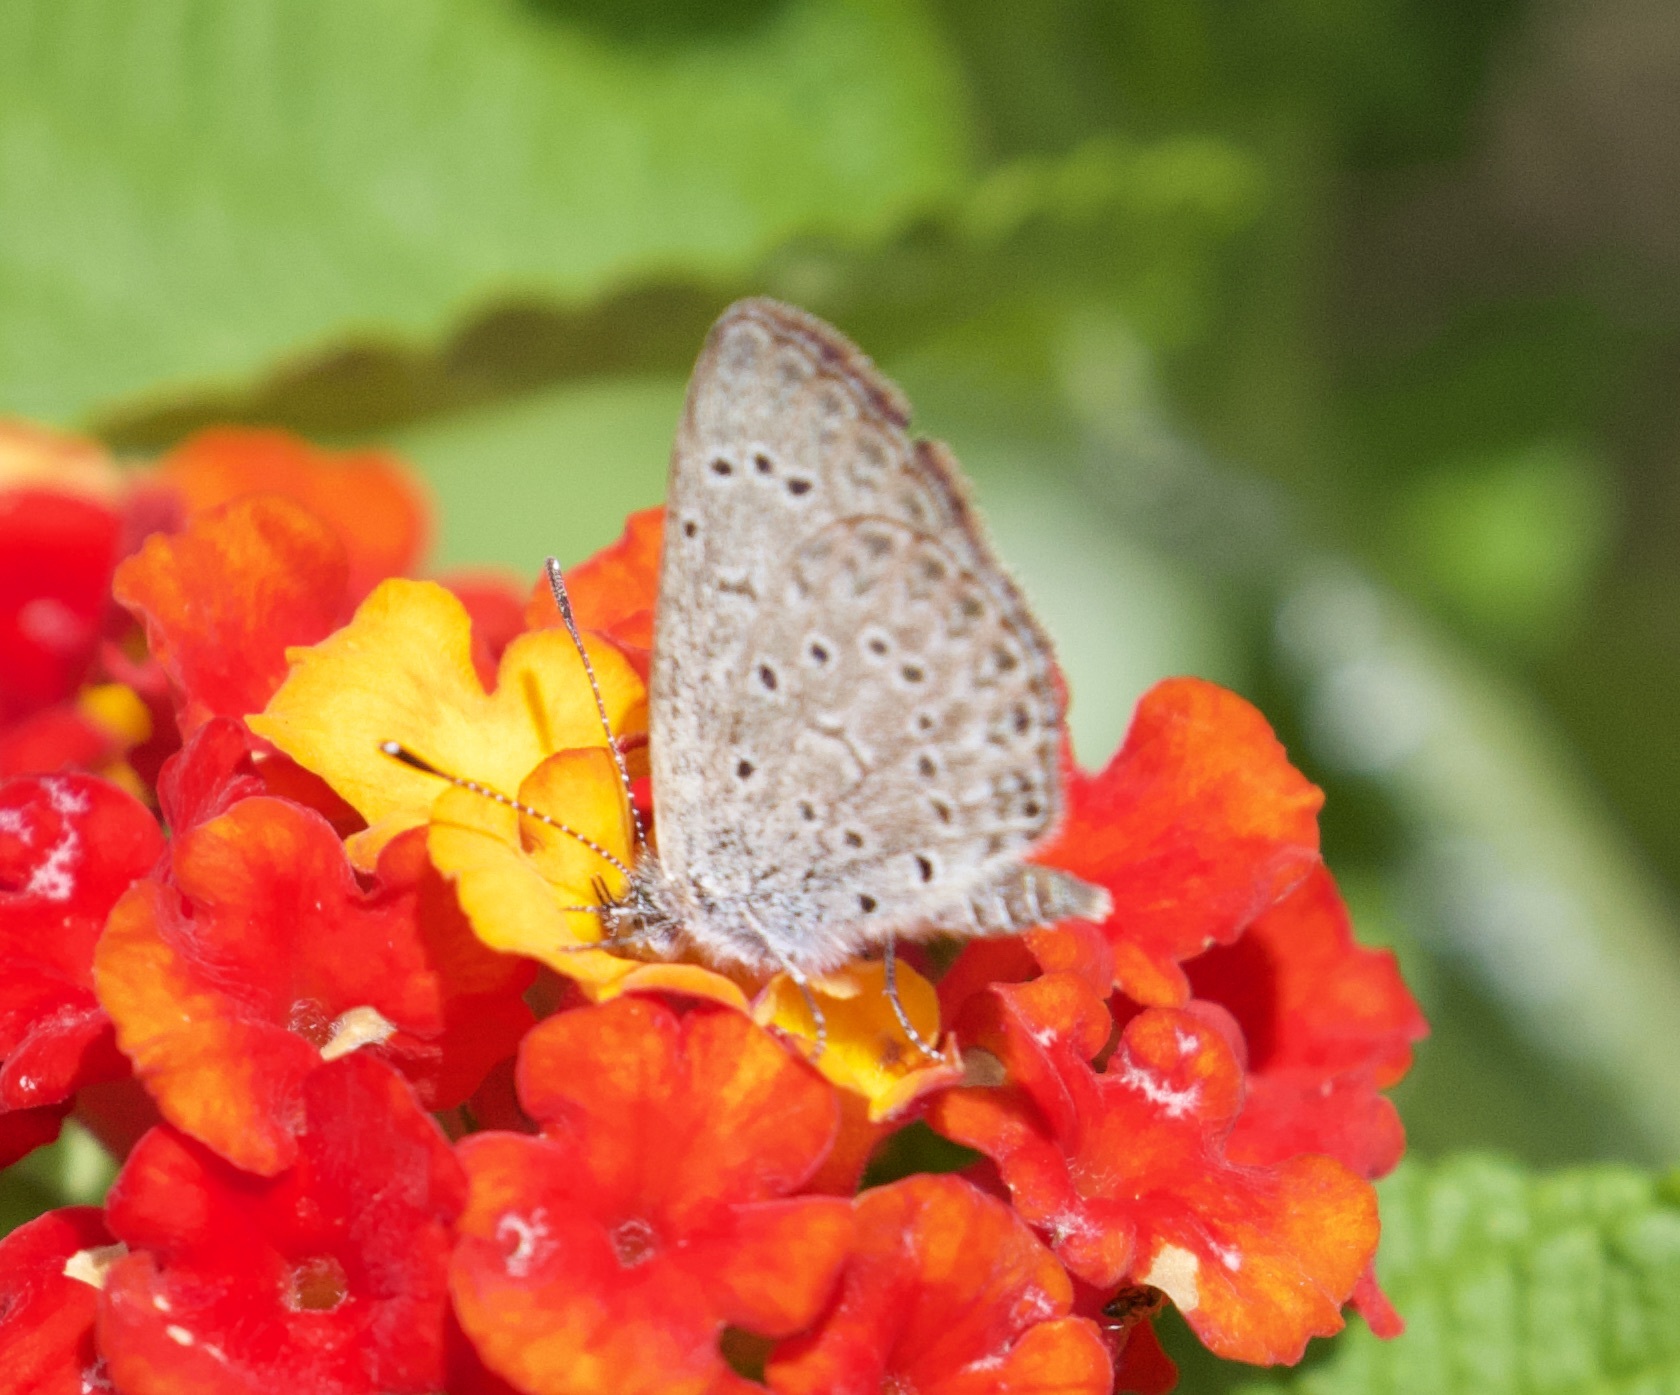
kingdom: Animalia
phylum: Arthropoda
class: Insecta
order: Lepidoptera
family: Lycaenidae
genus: Zizeeria
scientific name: Zizeeria knysna
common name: African grass blue
